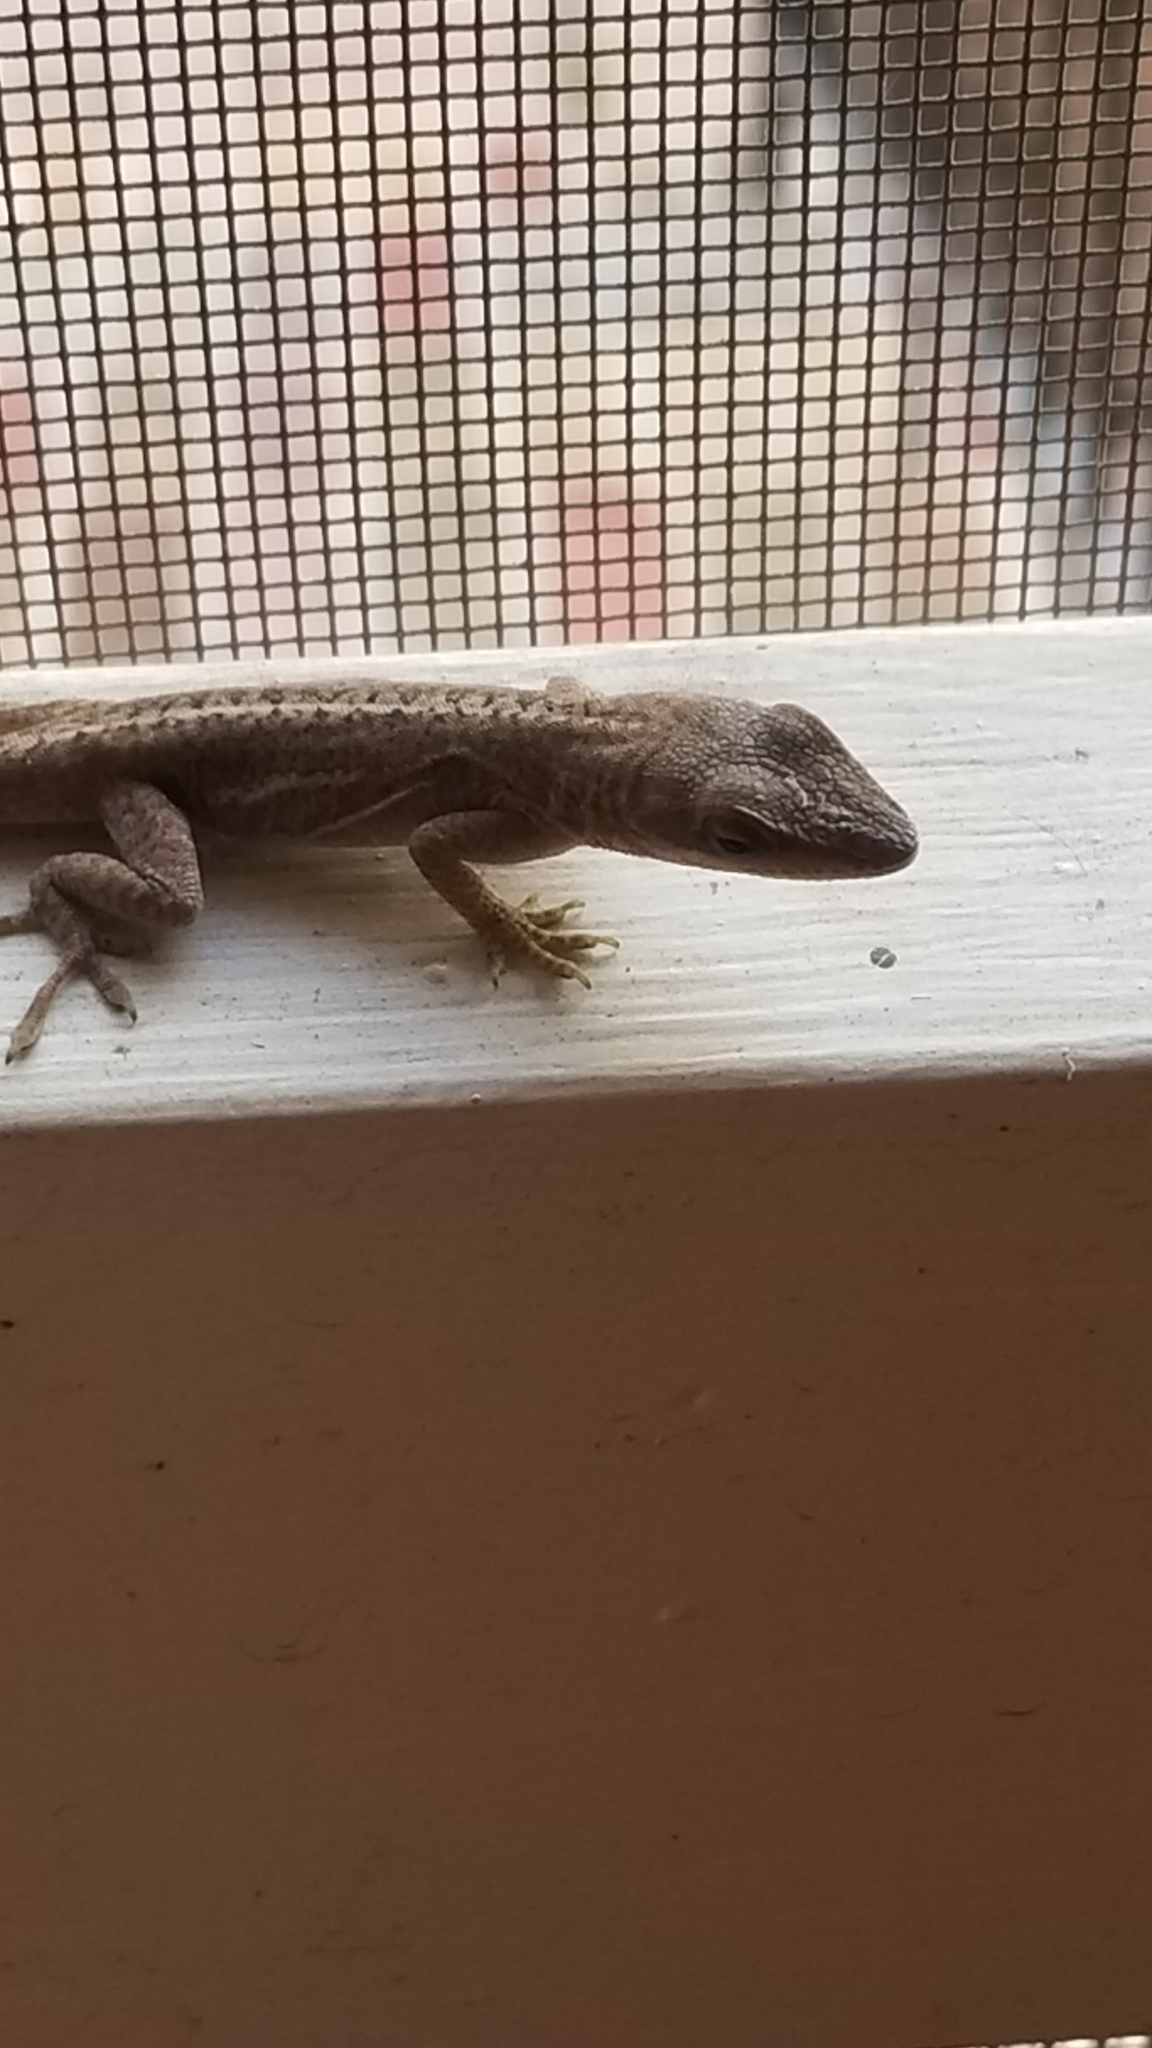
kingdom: Animalia
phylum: Chordata
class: Squamata
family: Dactyloidae
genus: Anolis
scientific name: Anolis carolinensis
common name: Green anole
